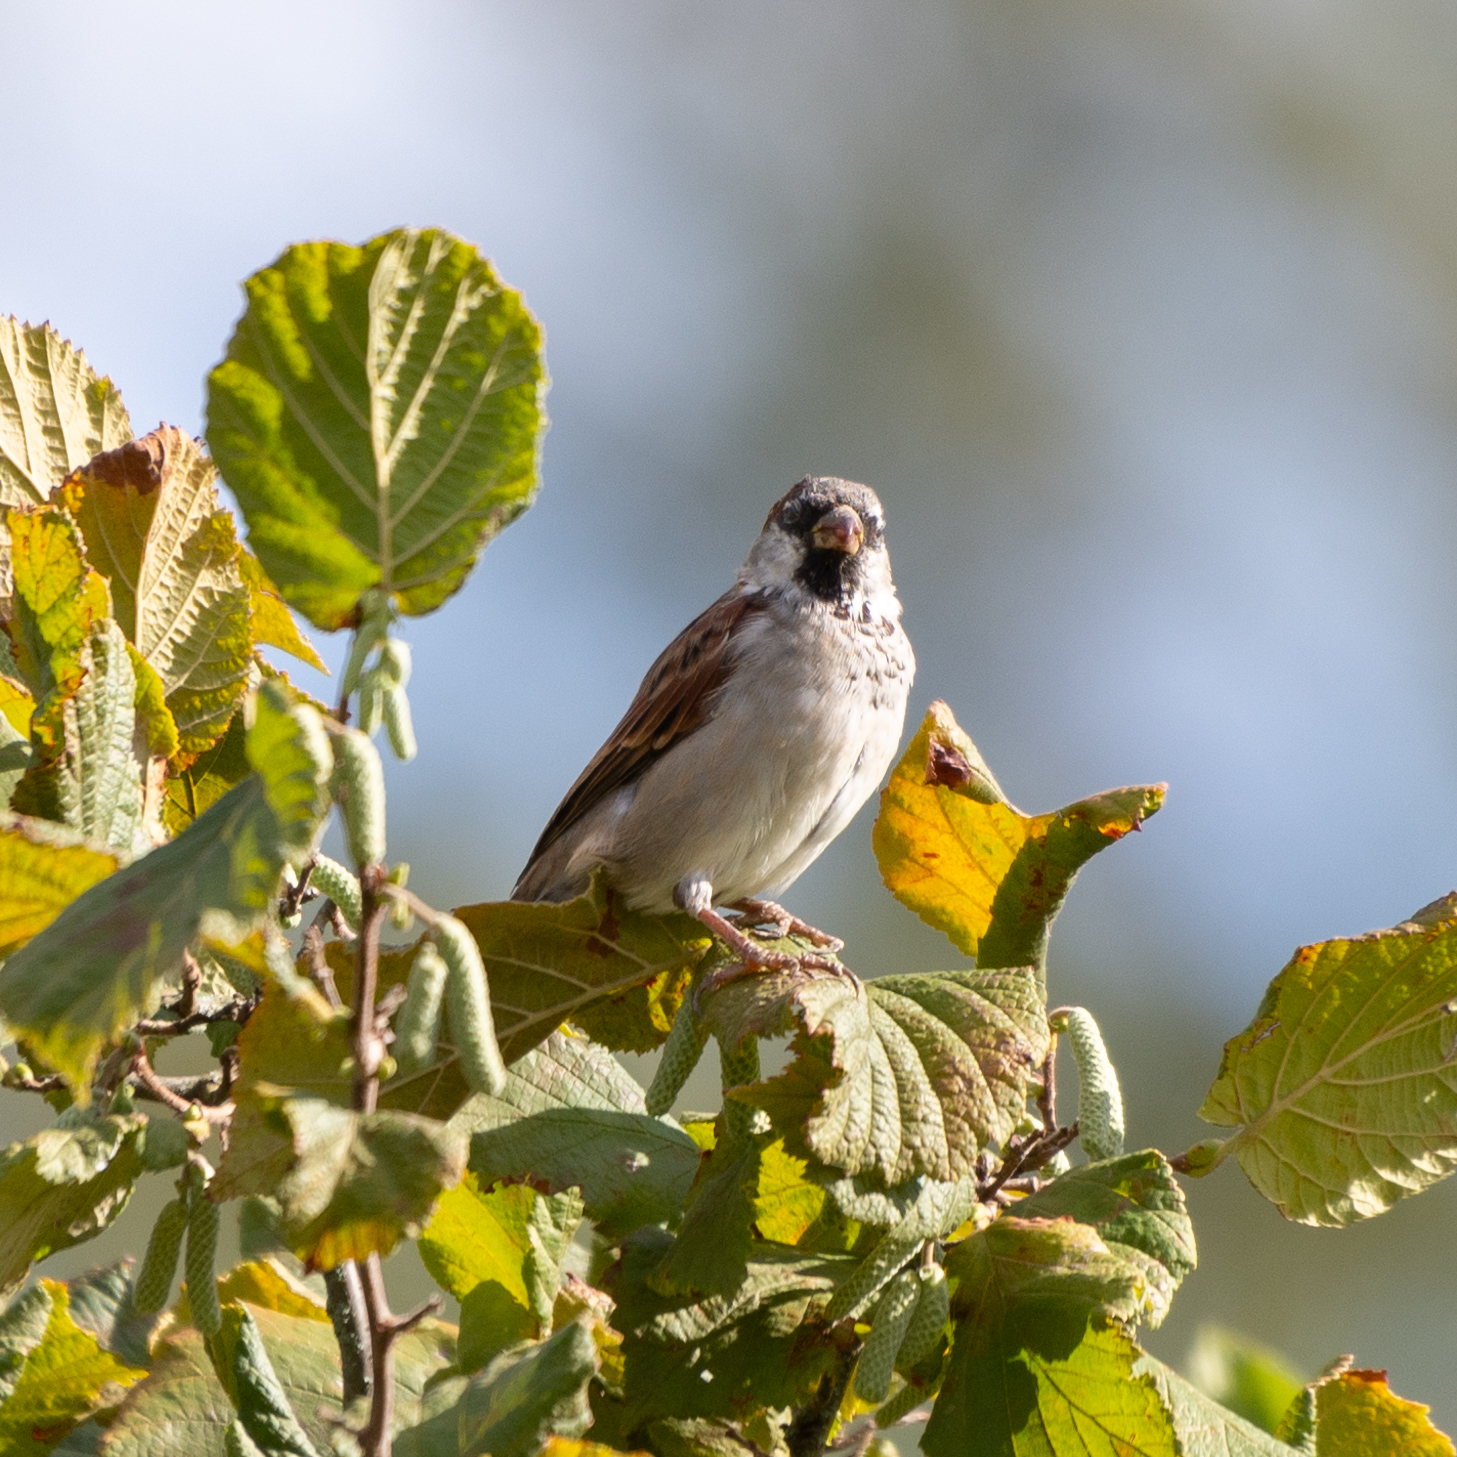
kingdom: Animalia
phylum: Chordata
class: Aves
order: Passeriformes
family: Passeridae
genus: Passer
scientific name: Passer domesticus
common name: House sparrow
